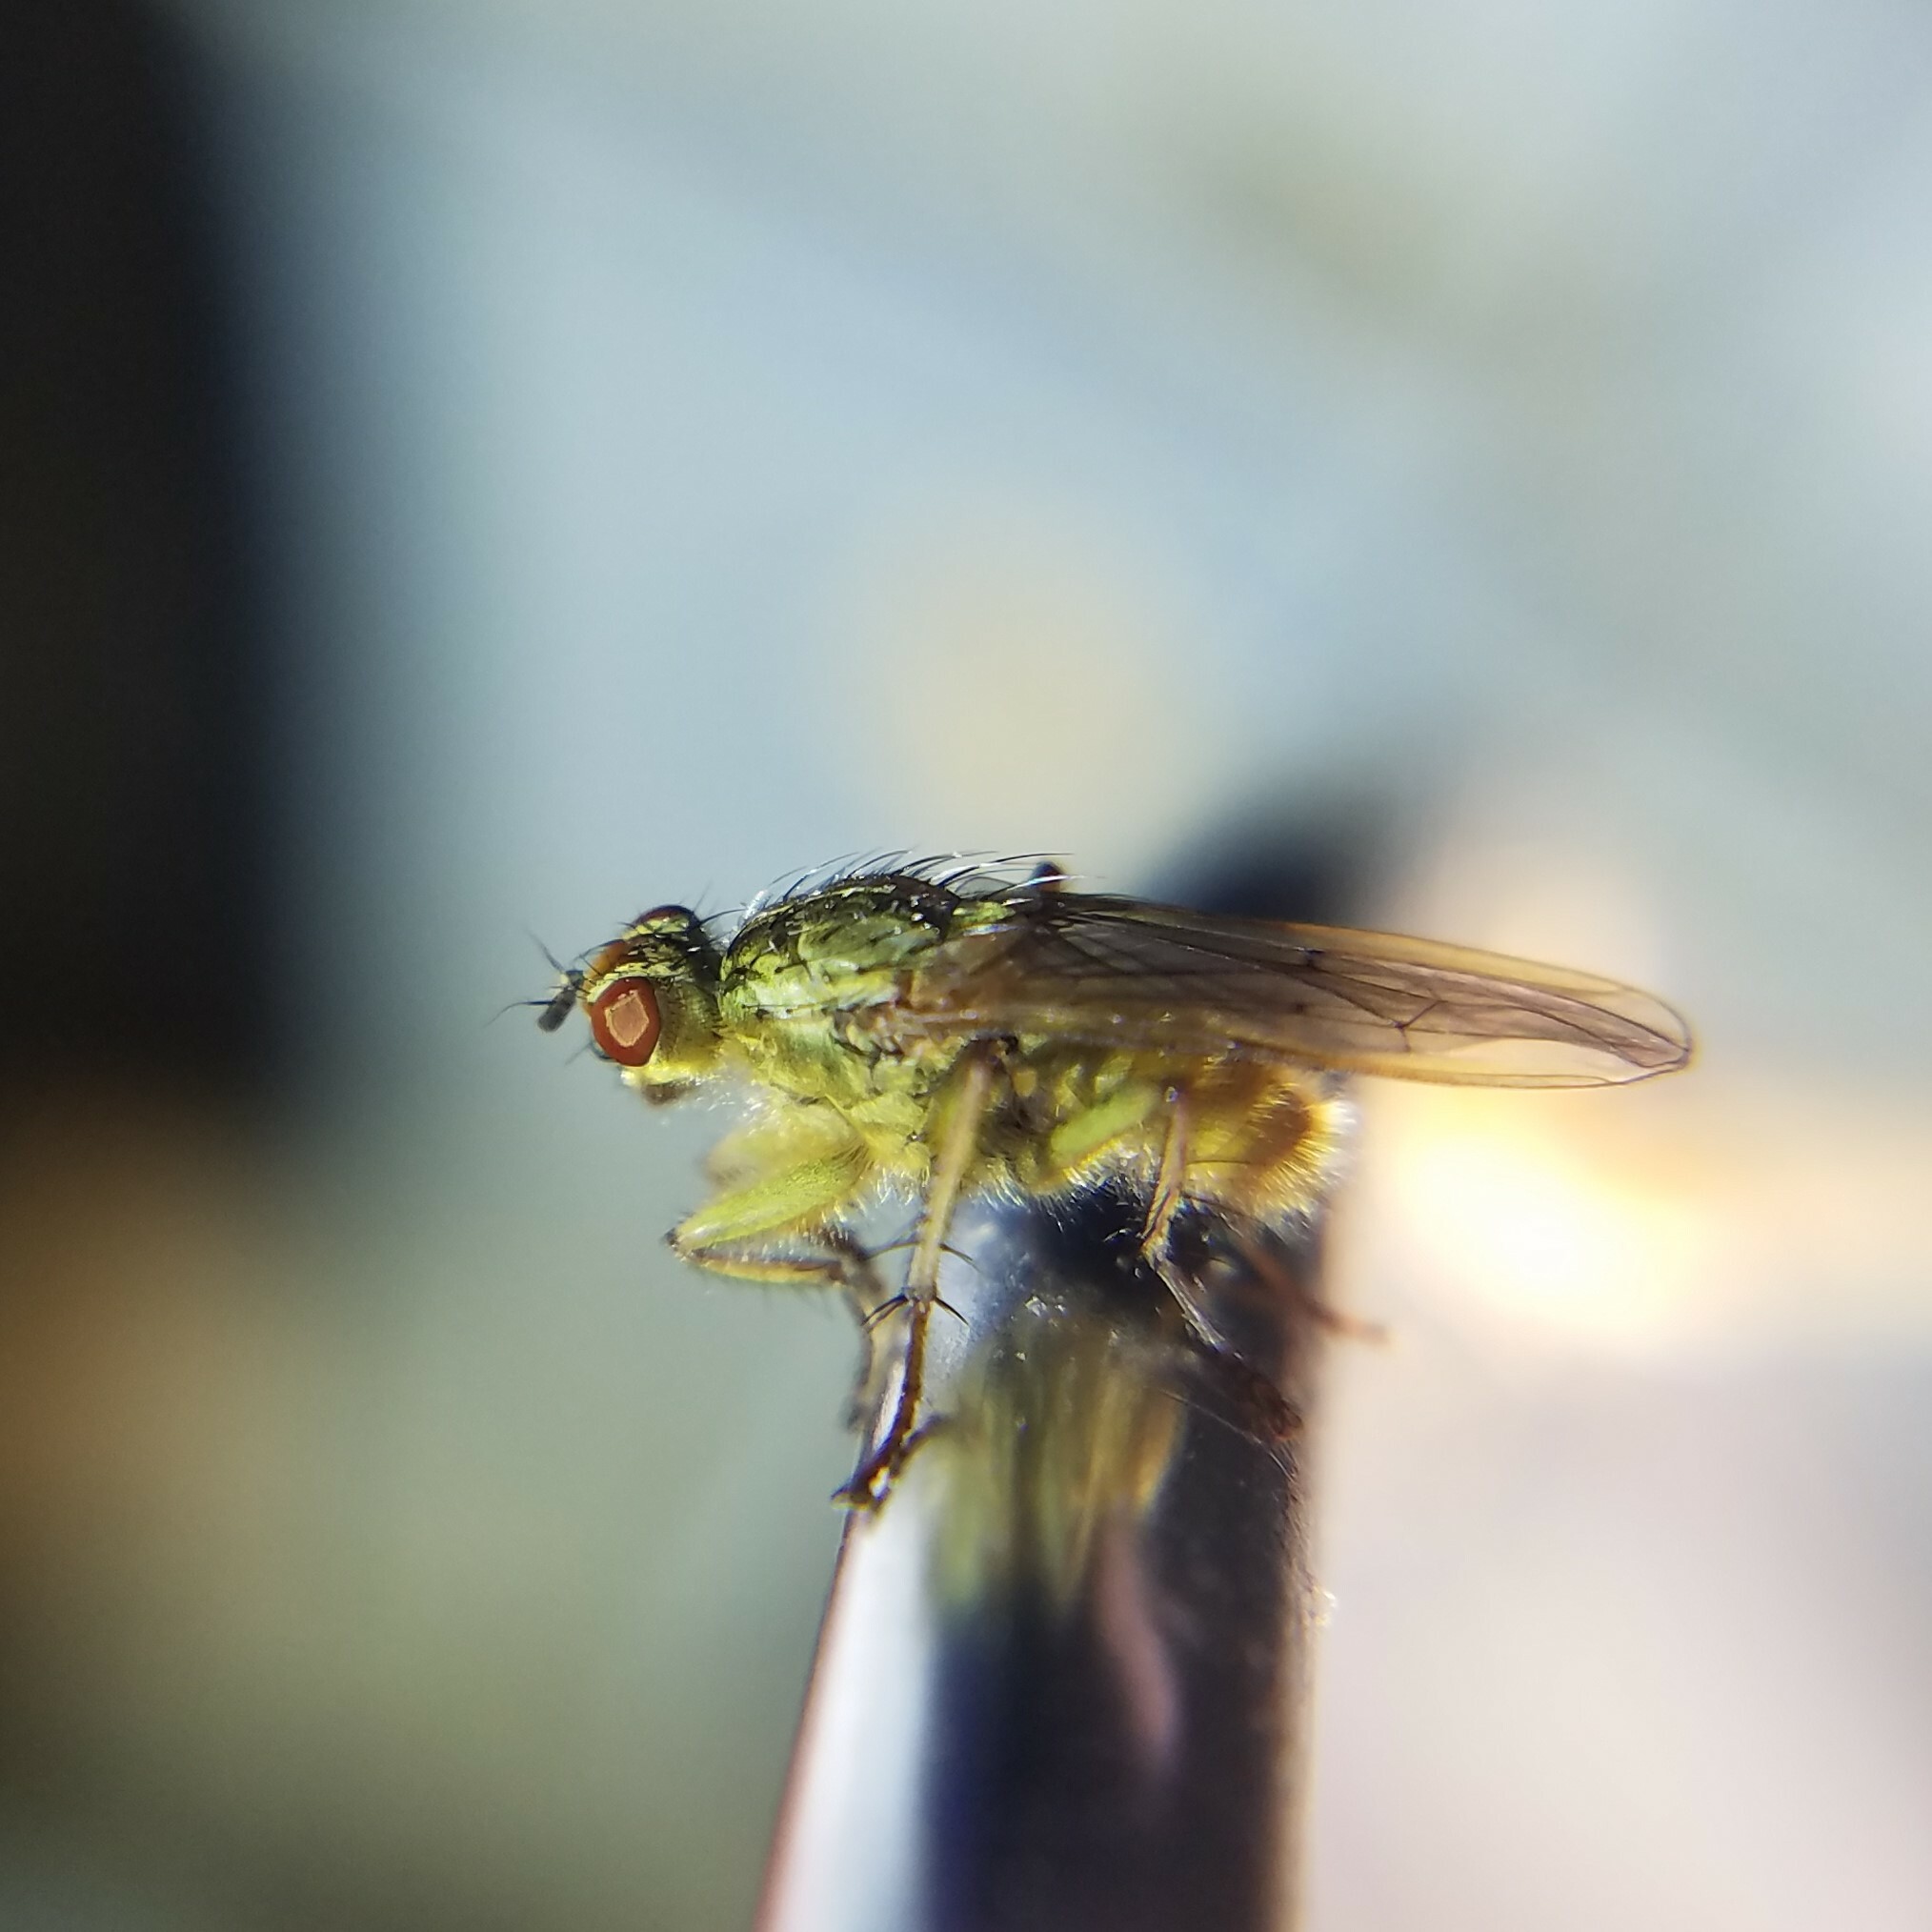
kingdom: Animalia
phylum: Arthropoda
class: Insecta
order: Diptera
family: Scathophagidae
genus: Scathophaga
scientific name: Scathophaga stercoraria
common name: Yellow dung fly
